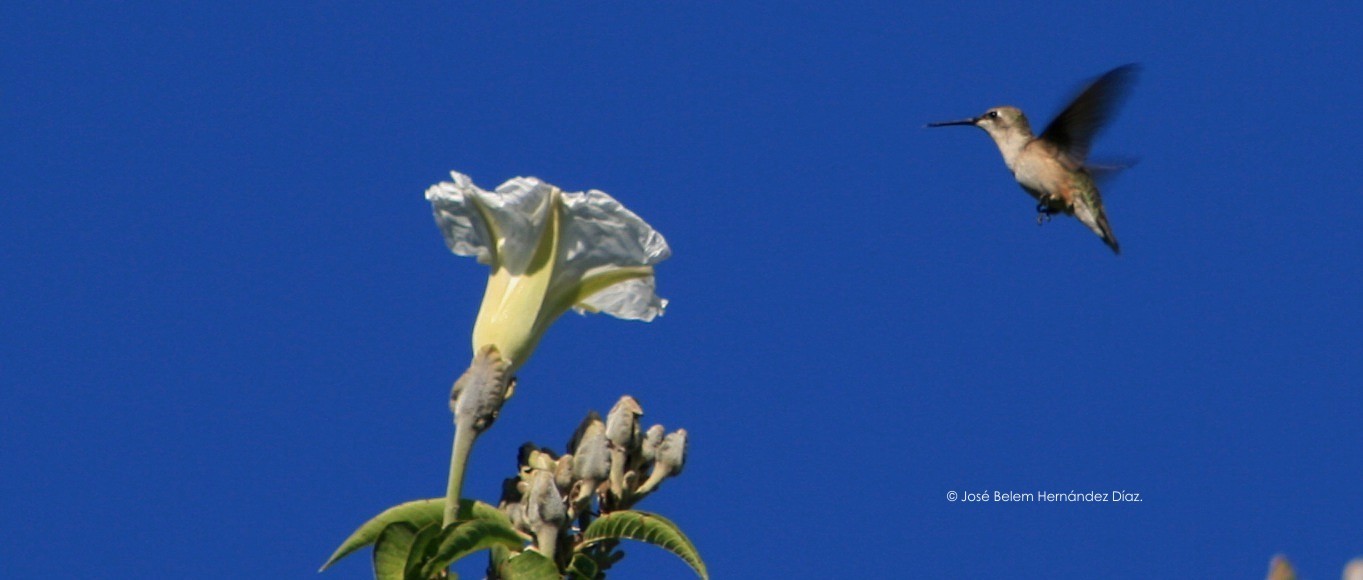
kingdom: Animalia
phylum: Chordata
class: Aves
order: Apodiformes
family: Trochilidae
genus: Archilochus
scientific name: Archilochus colubris
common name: Ruby-throated hummingbird
